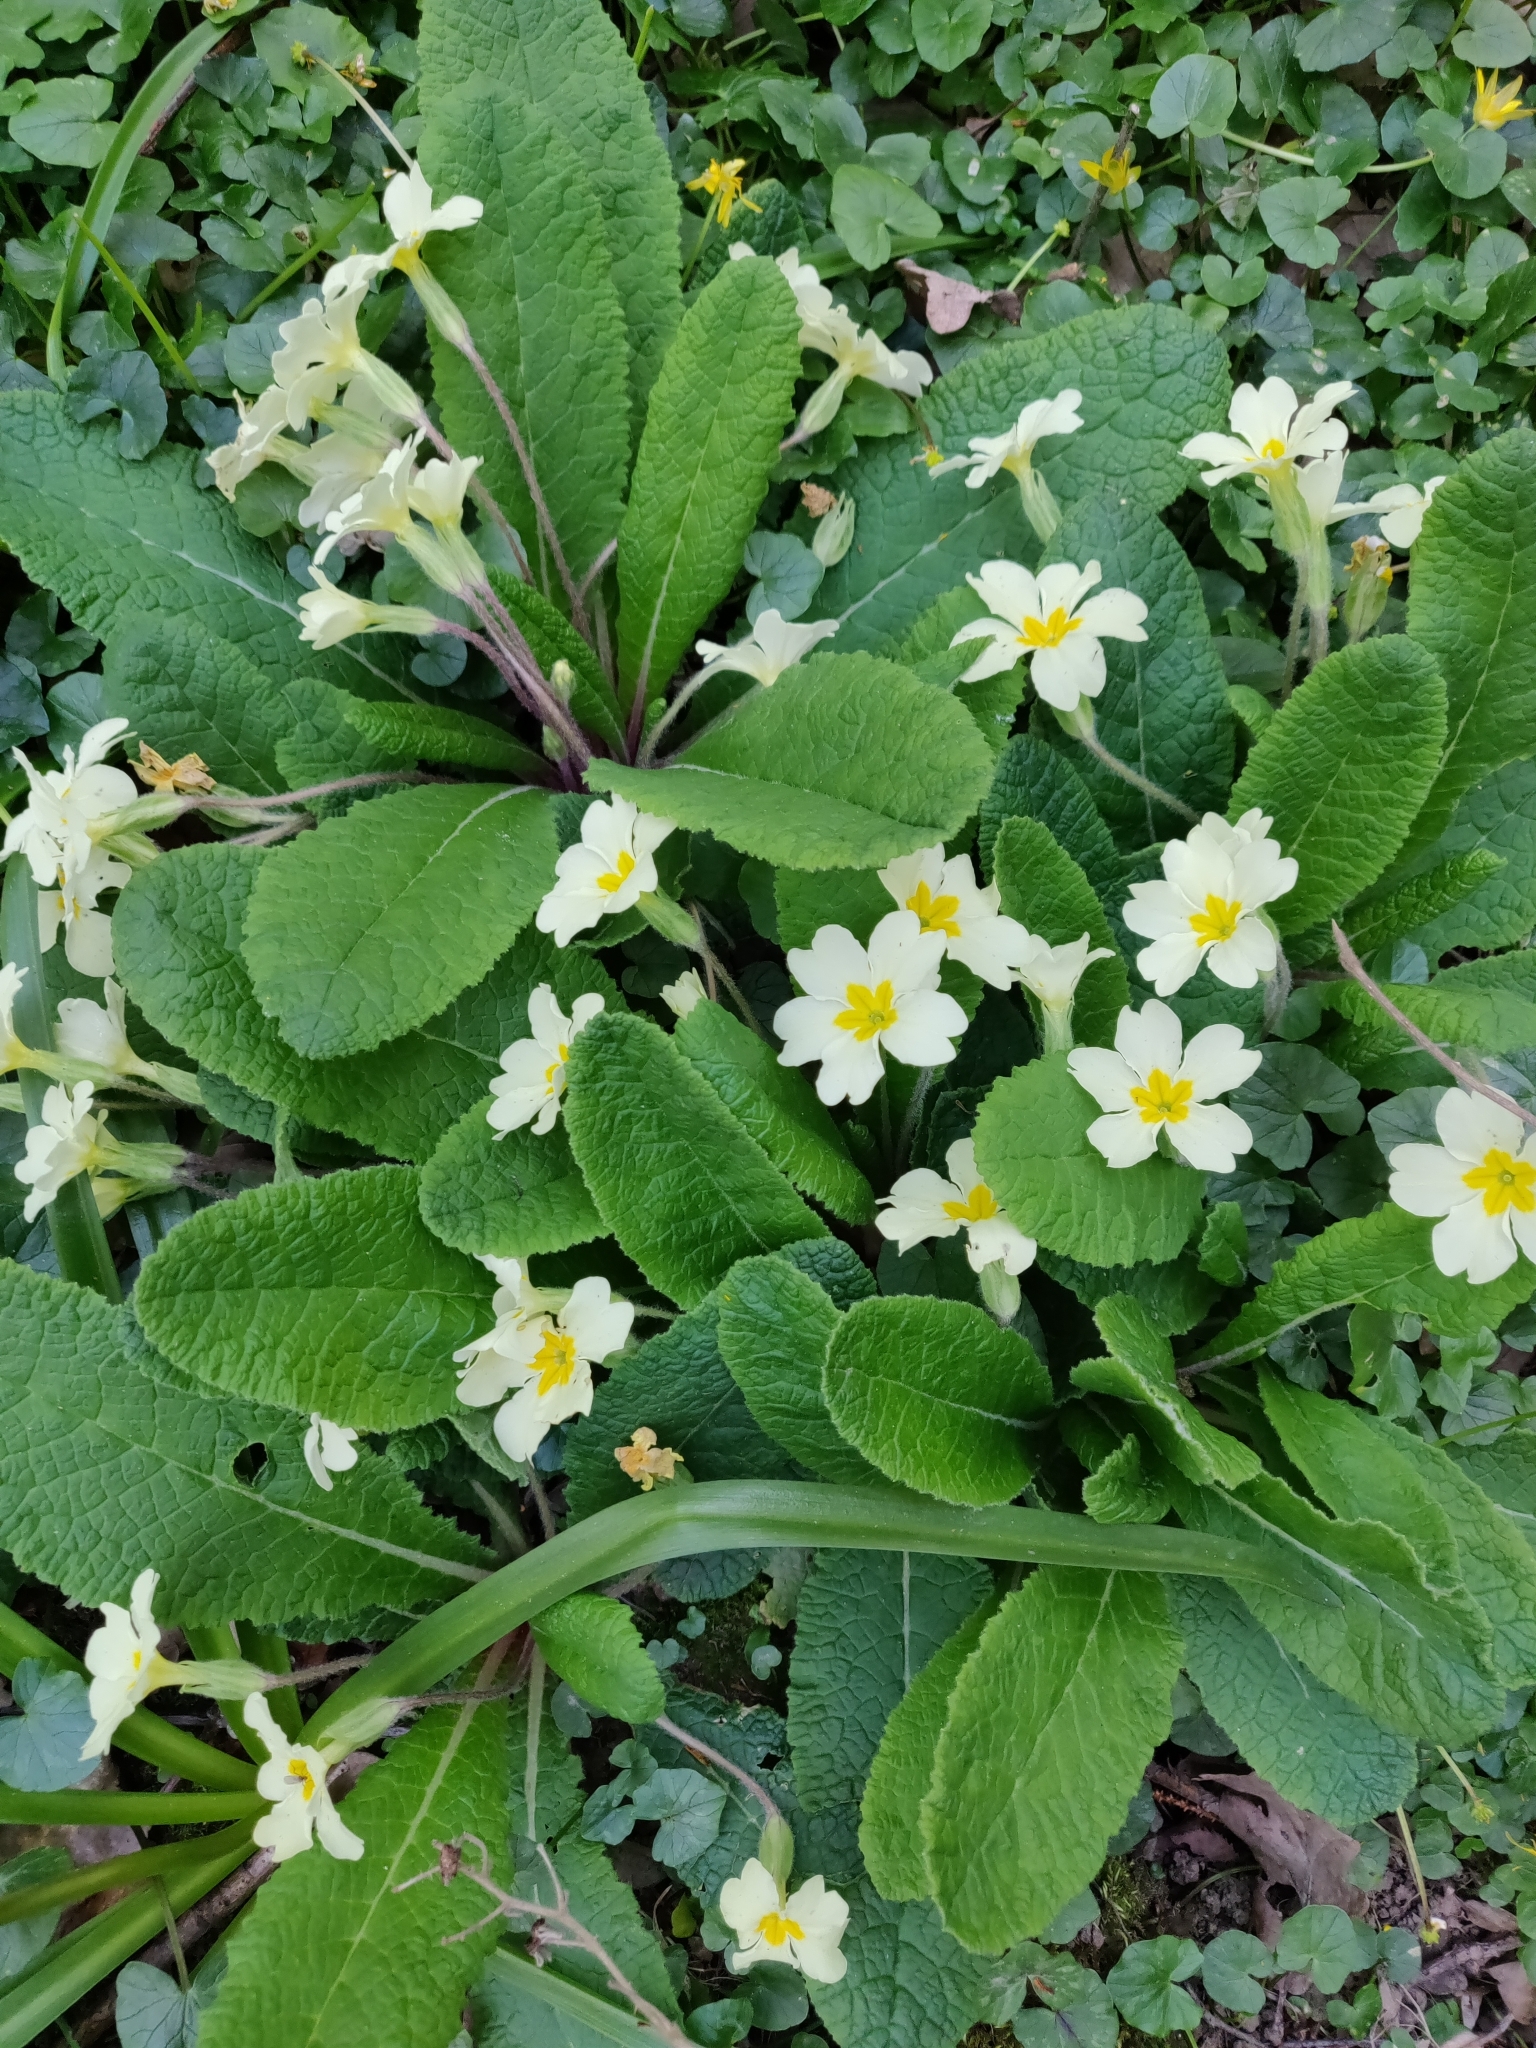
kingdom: Plantae
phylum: Tracheophyta
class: Magnoliopsida
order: Ericales
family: Primulaceae
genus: Primula
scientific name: Primula vulgaris
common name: Primrose
